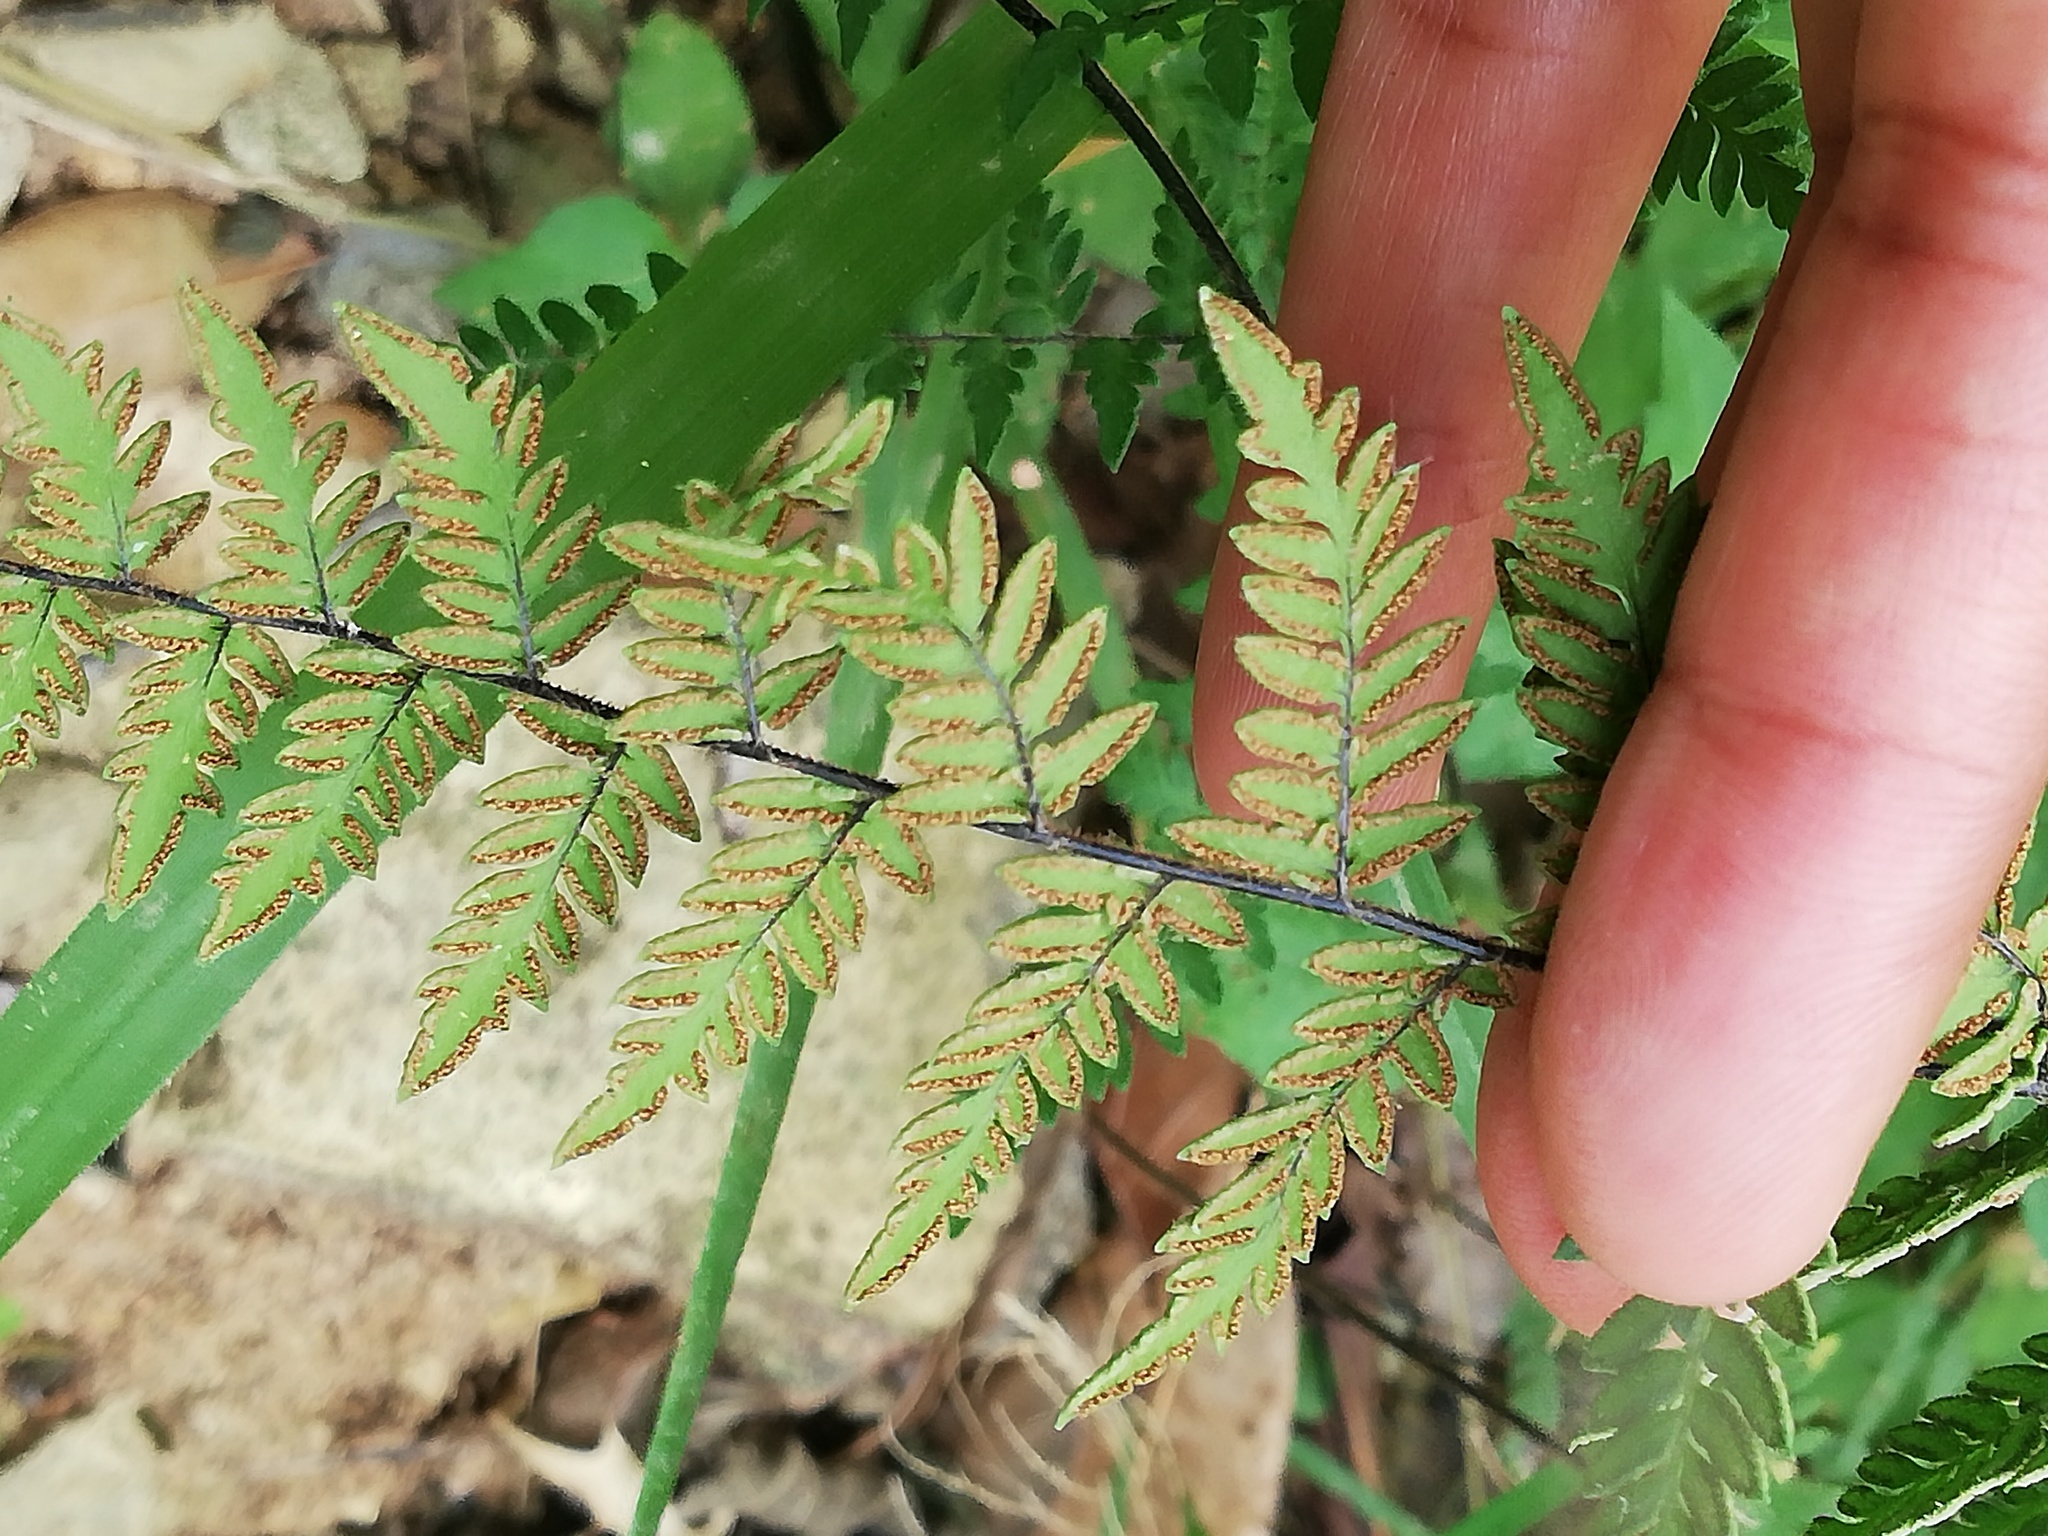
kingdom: Plantae
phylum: Tracheophyta
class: Polypodiopsida
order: Polypodiales
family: Pteridaceae
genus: Myriopteris
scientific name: Myriopteris microphylla
